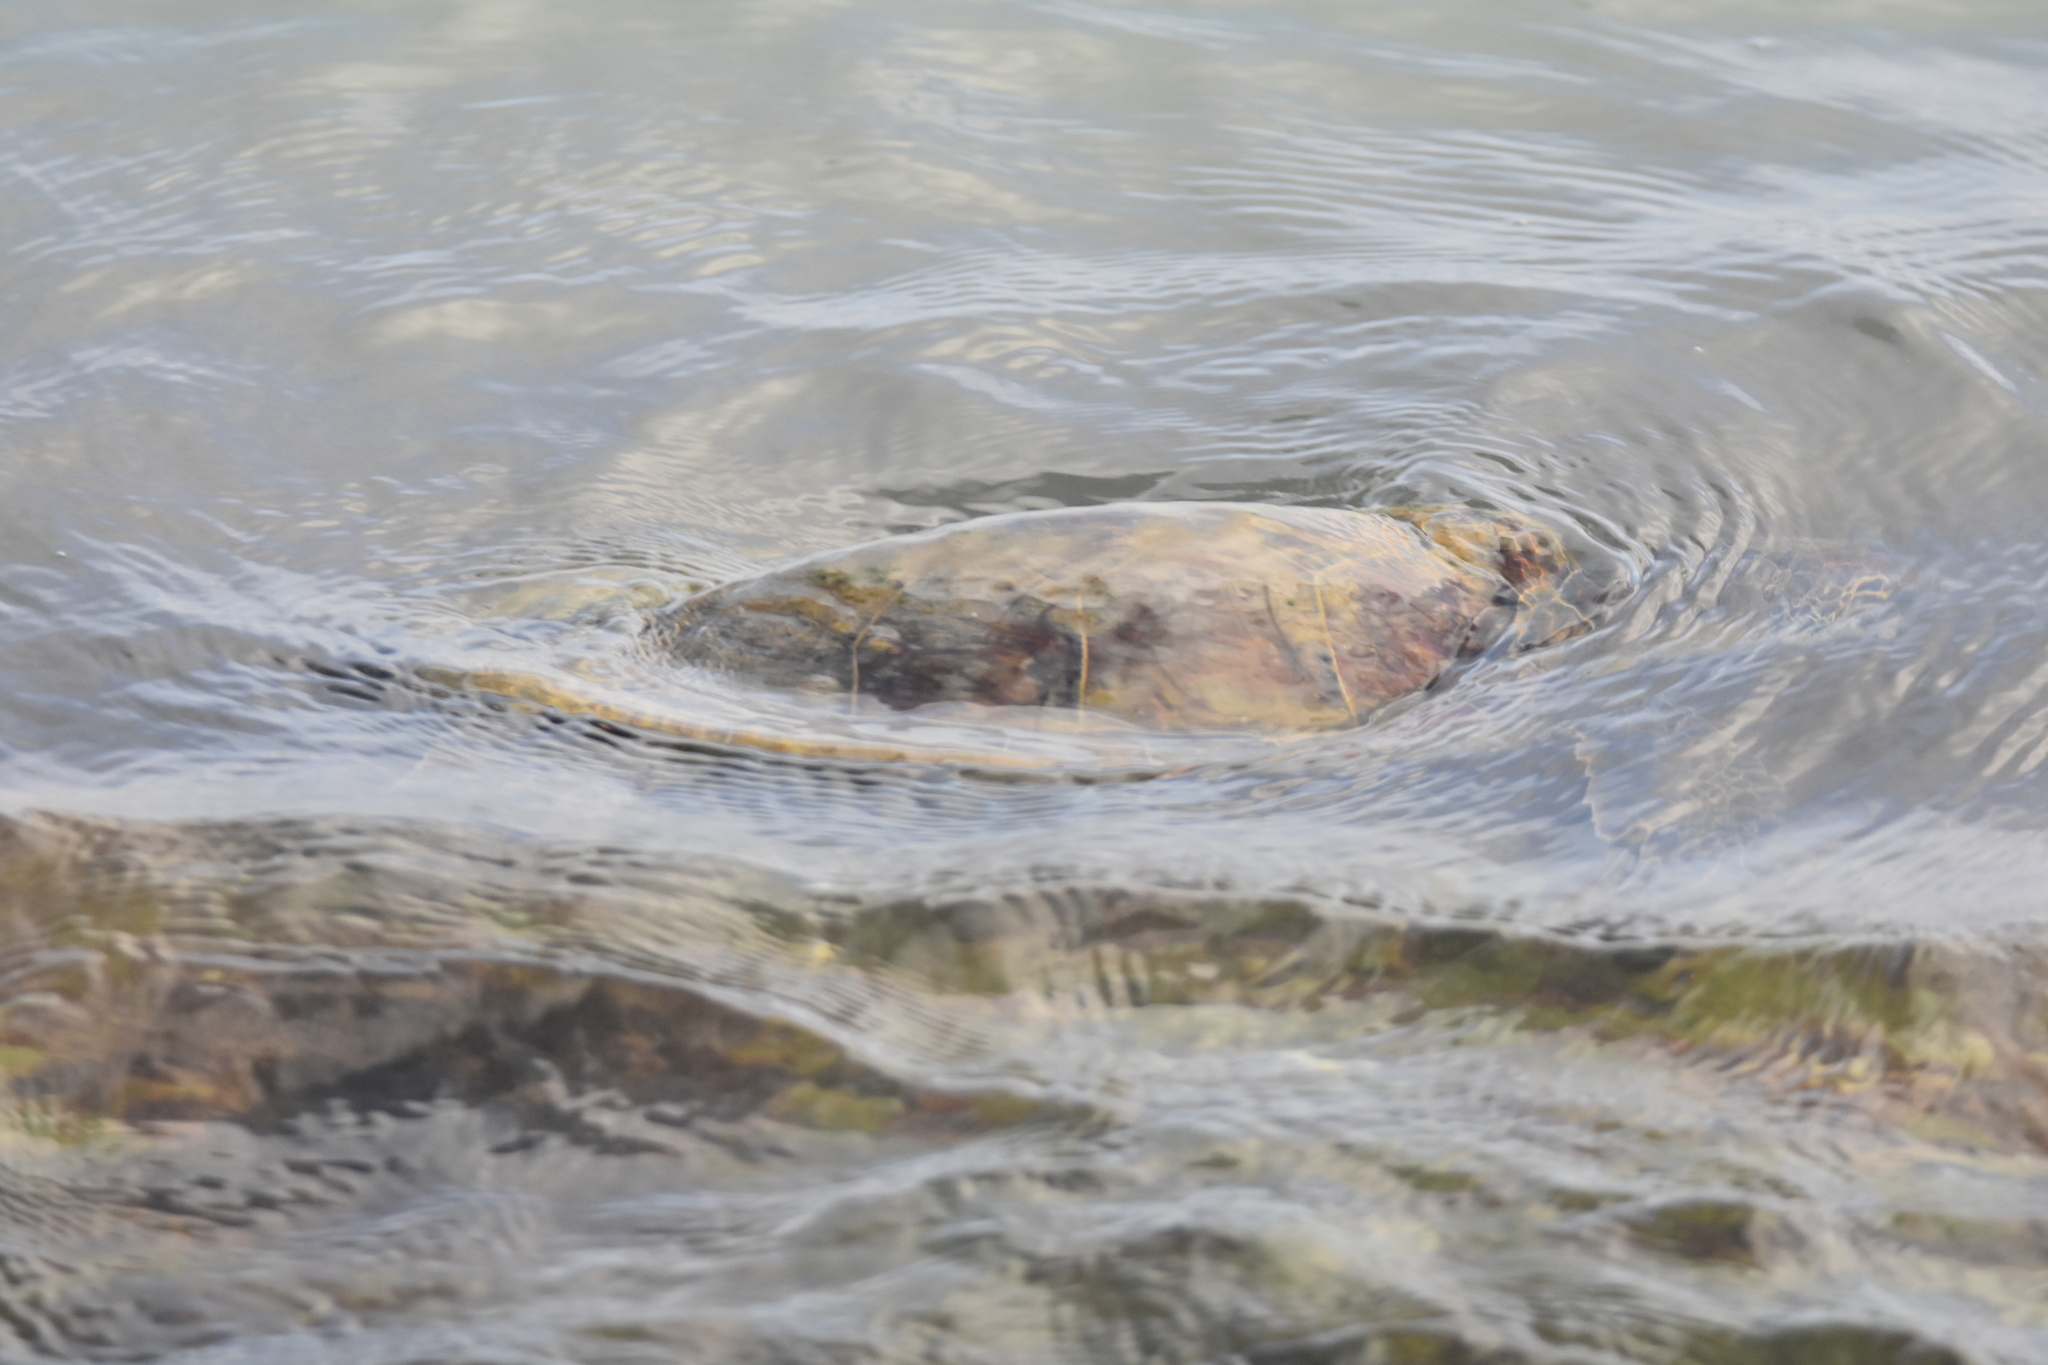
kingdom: Animalia
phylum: Chordata
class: Testudines
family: Cheloniidae
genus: Chelonia
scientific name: Chelonia mydas
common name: Green turtle
